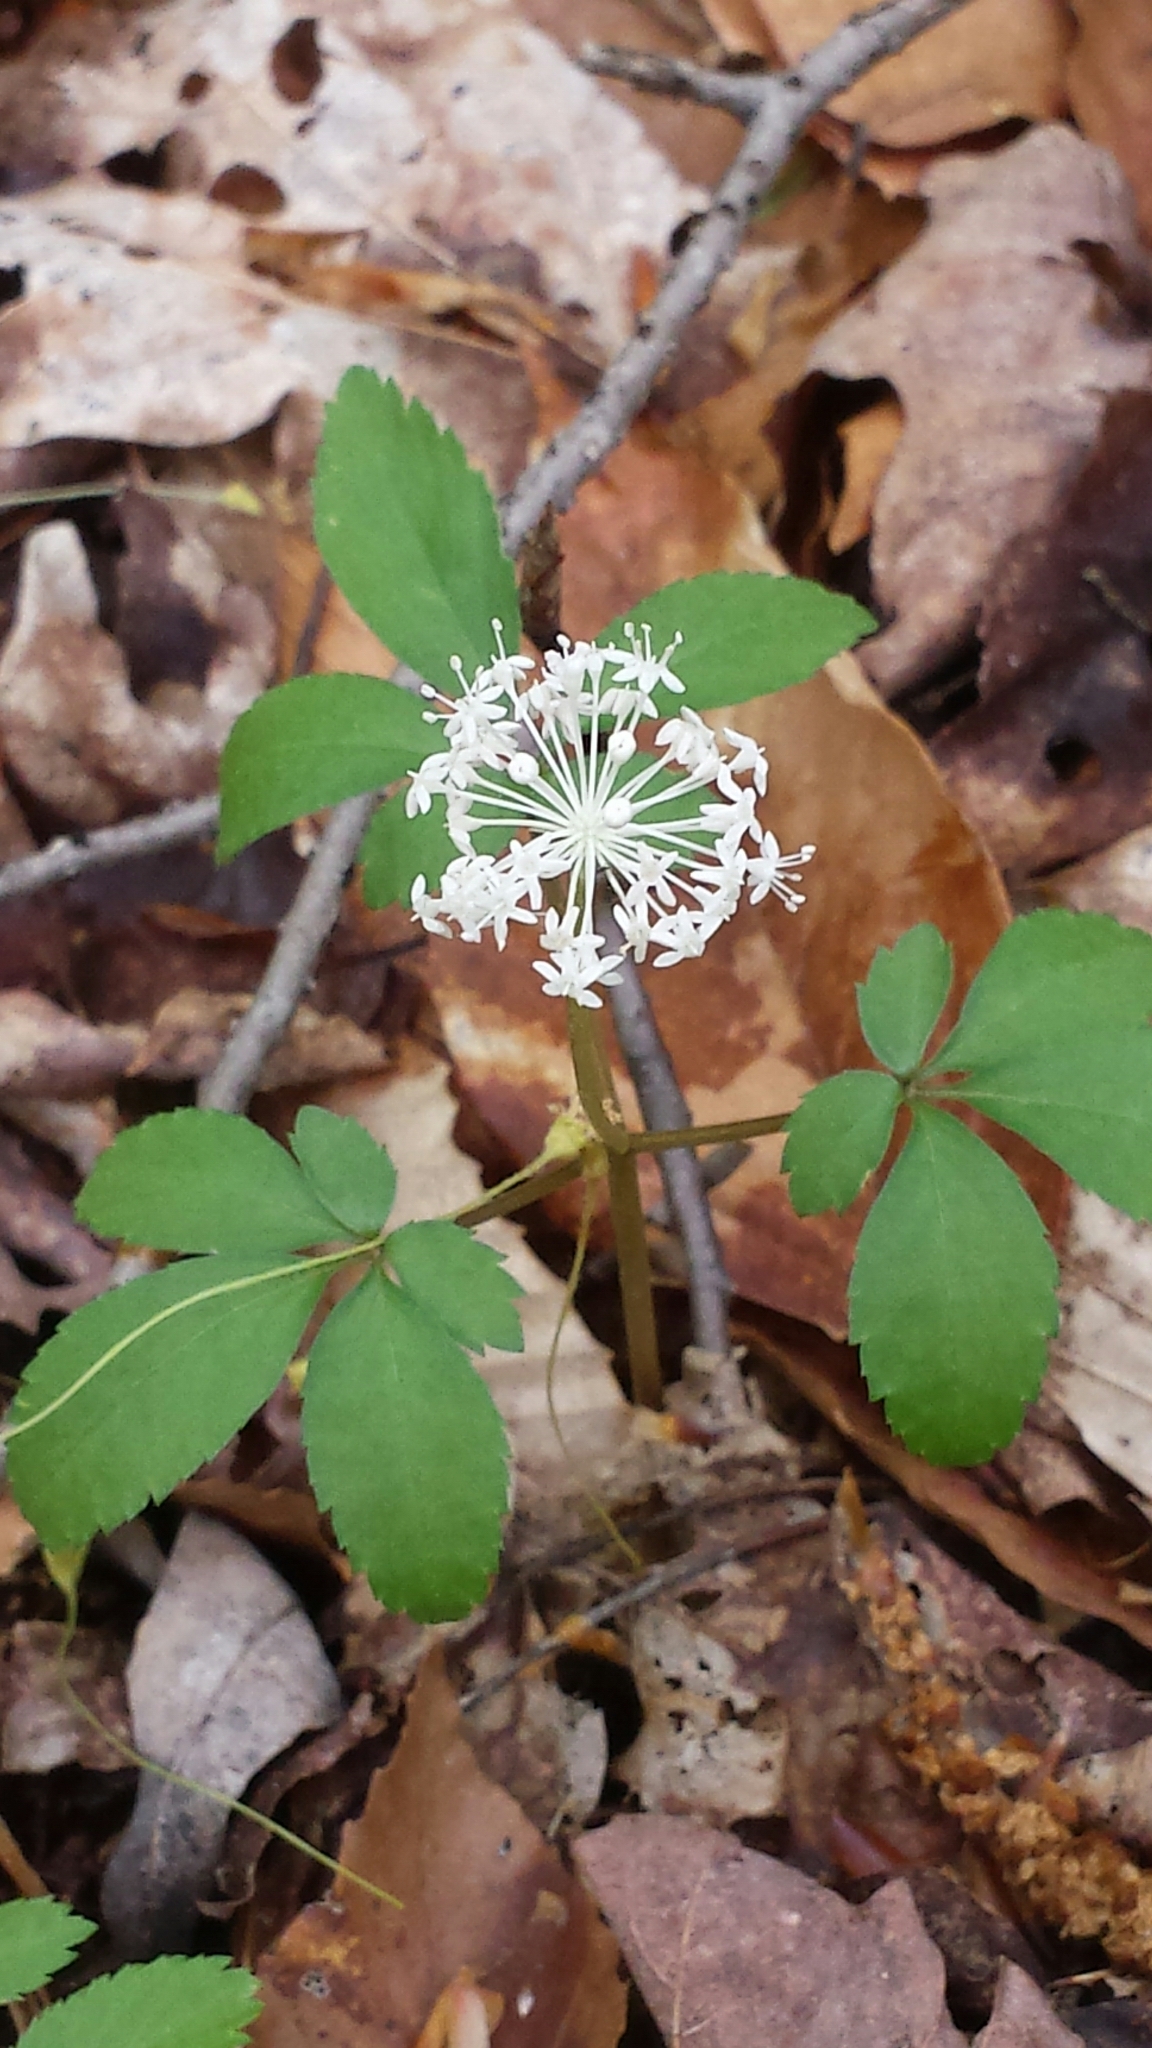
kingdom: Plantae
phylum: Tracheophyta
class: Magnoliopsida
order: Apiales
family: Araliaceae
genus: Panax
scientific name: Panax trifolius
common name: Dwarf ginseng
